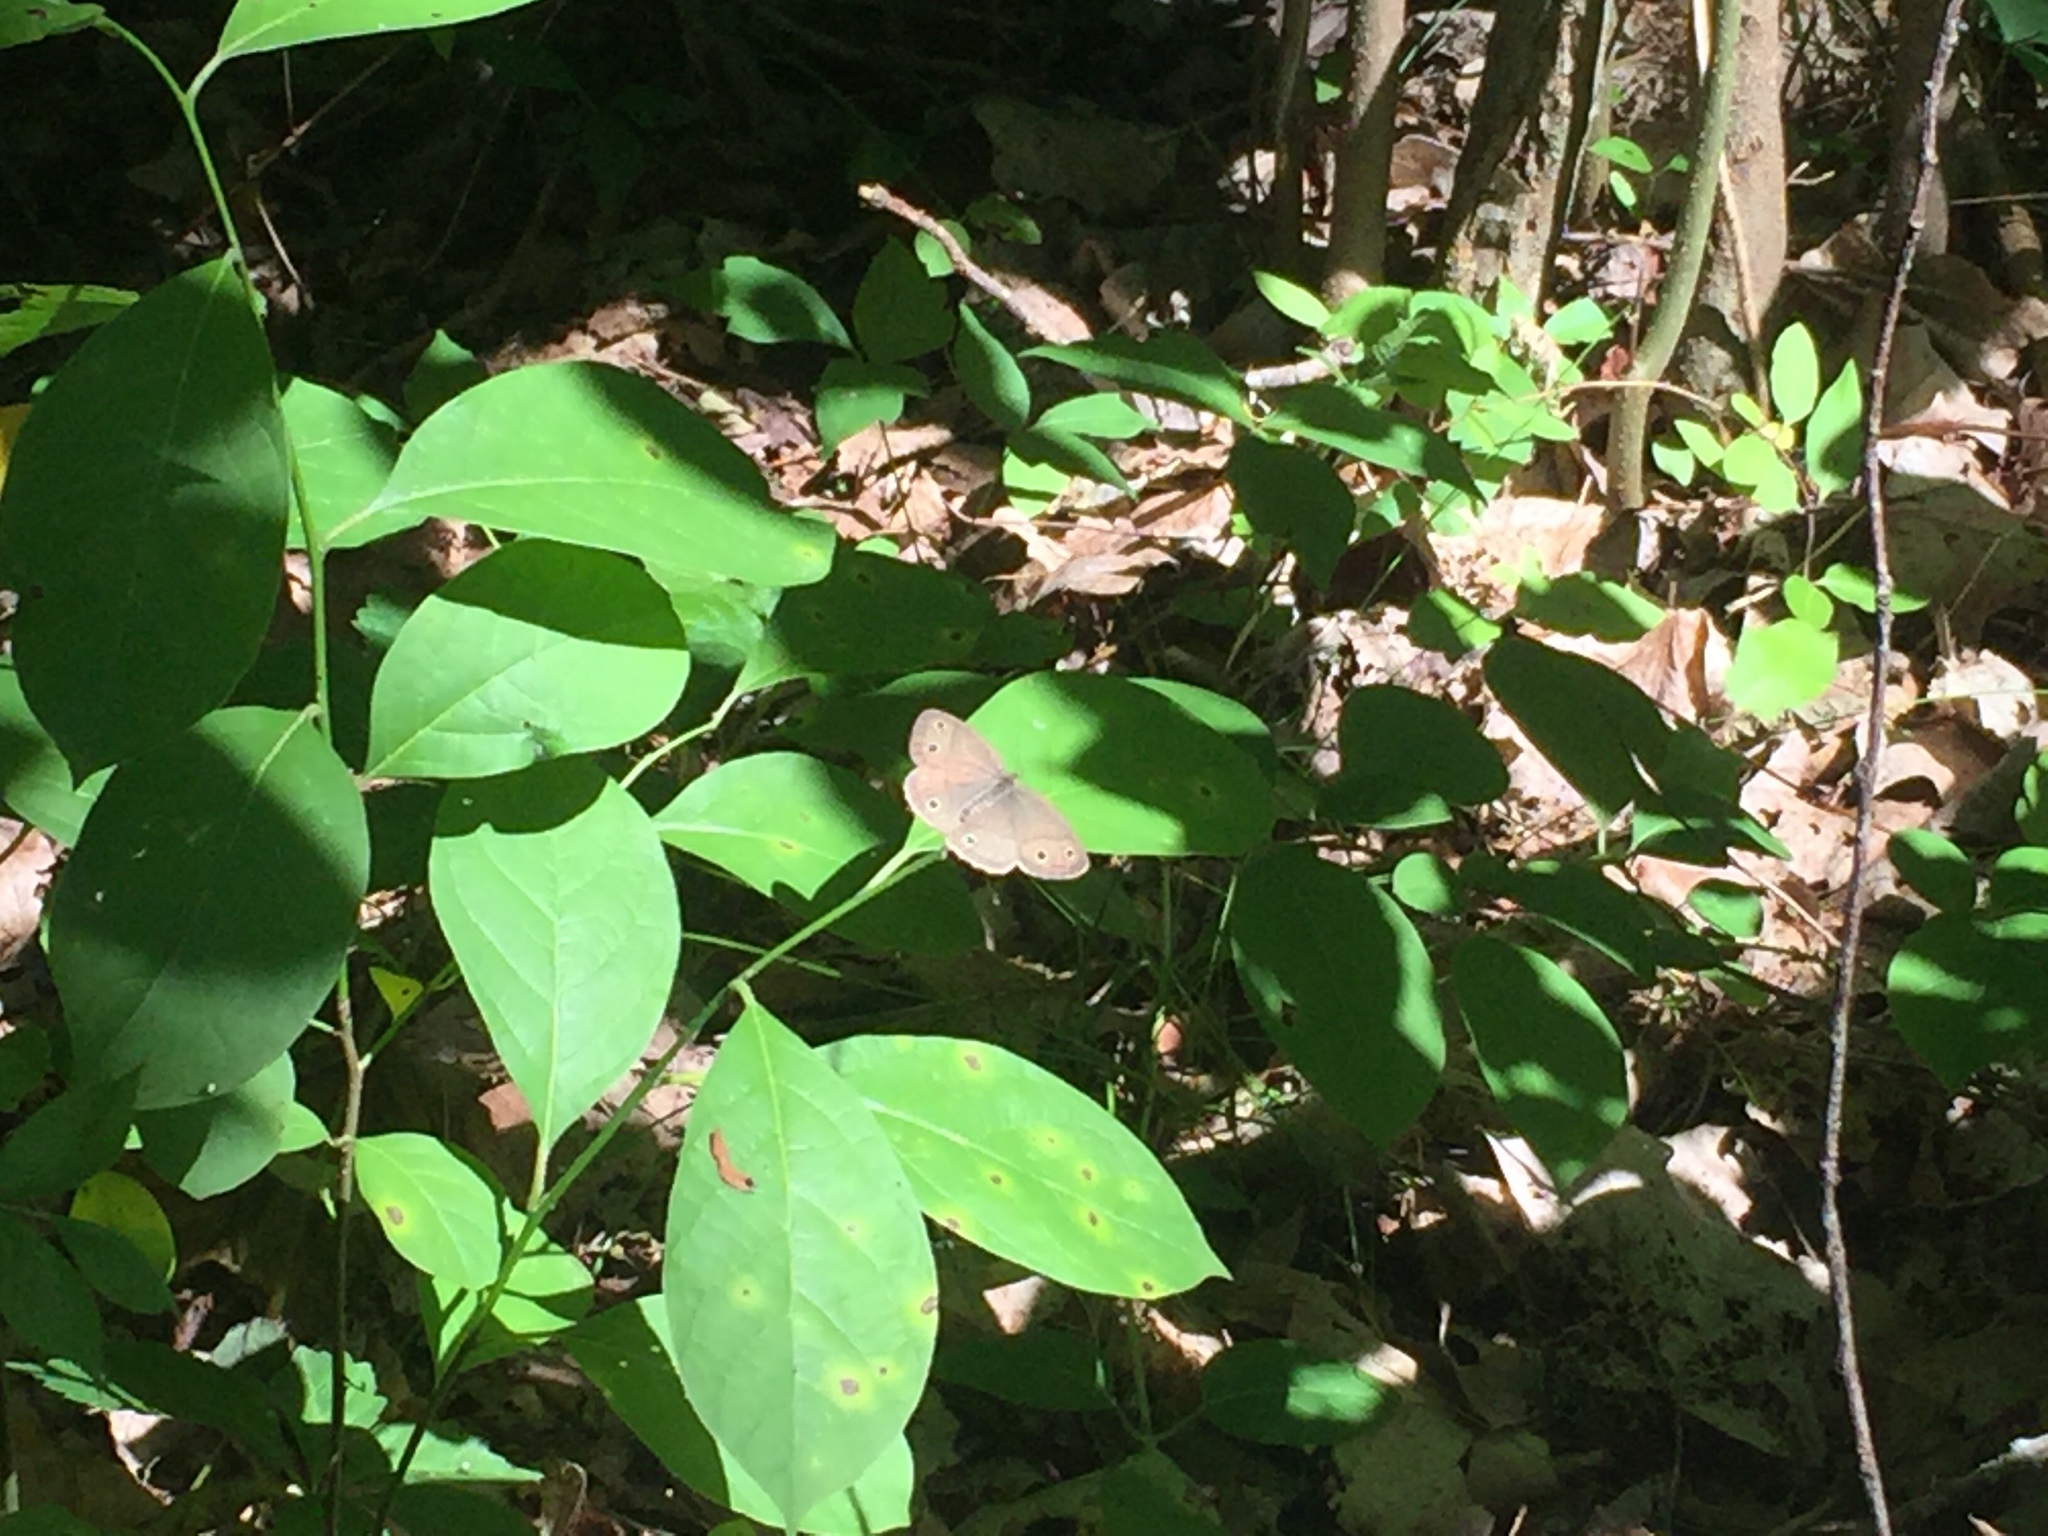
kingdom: Animalia
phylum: Arthropoda
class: Insecta
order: Lepidoptera
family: Nymphalidae
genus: Euptychia
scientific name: Euptychia cymela
